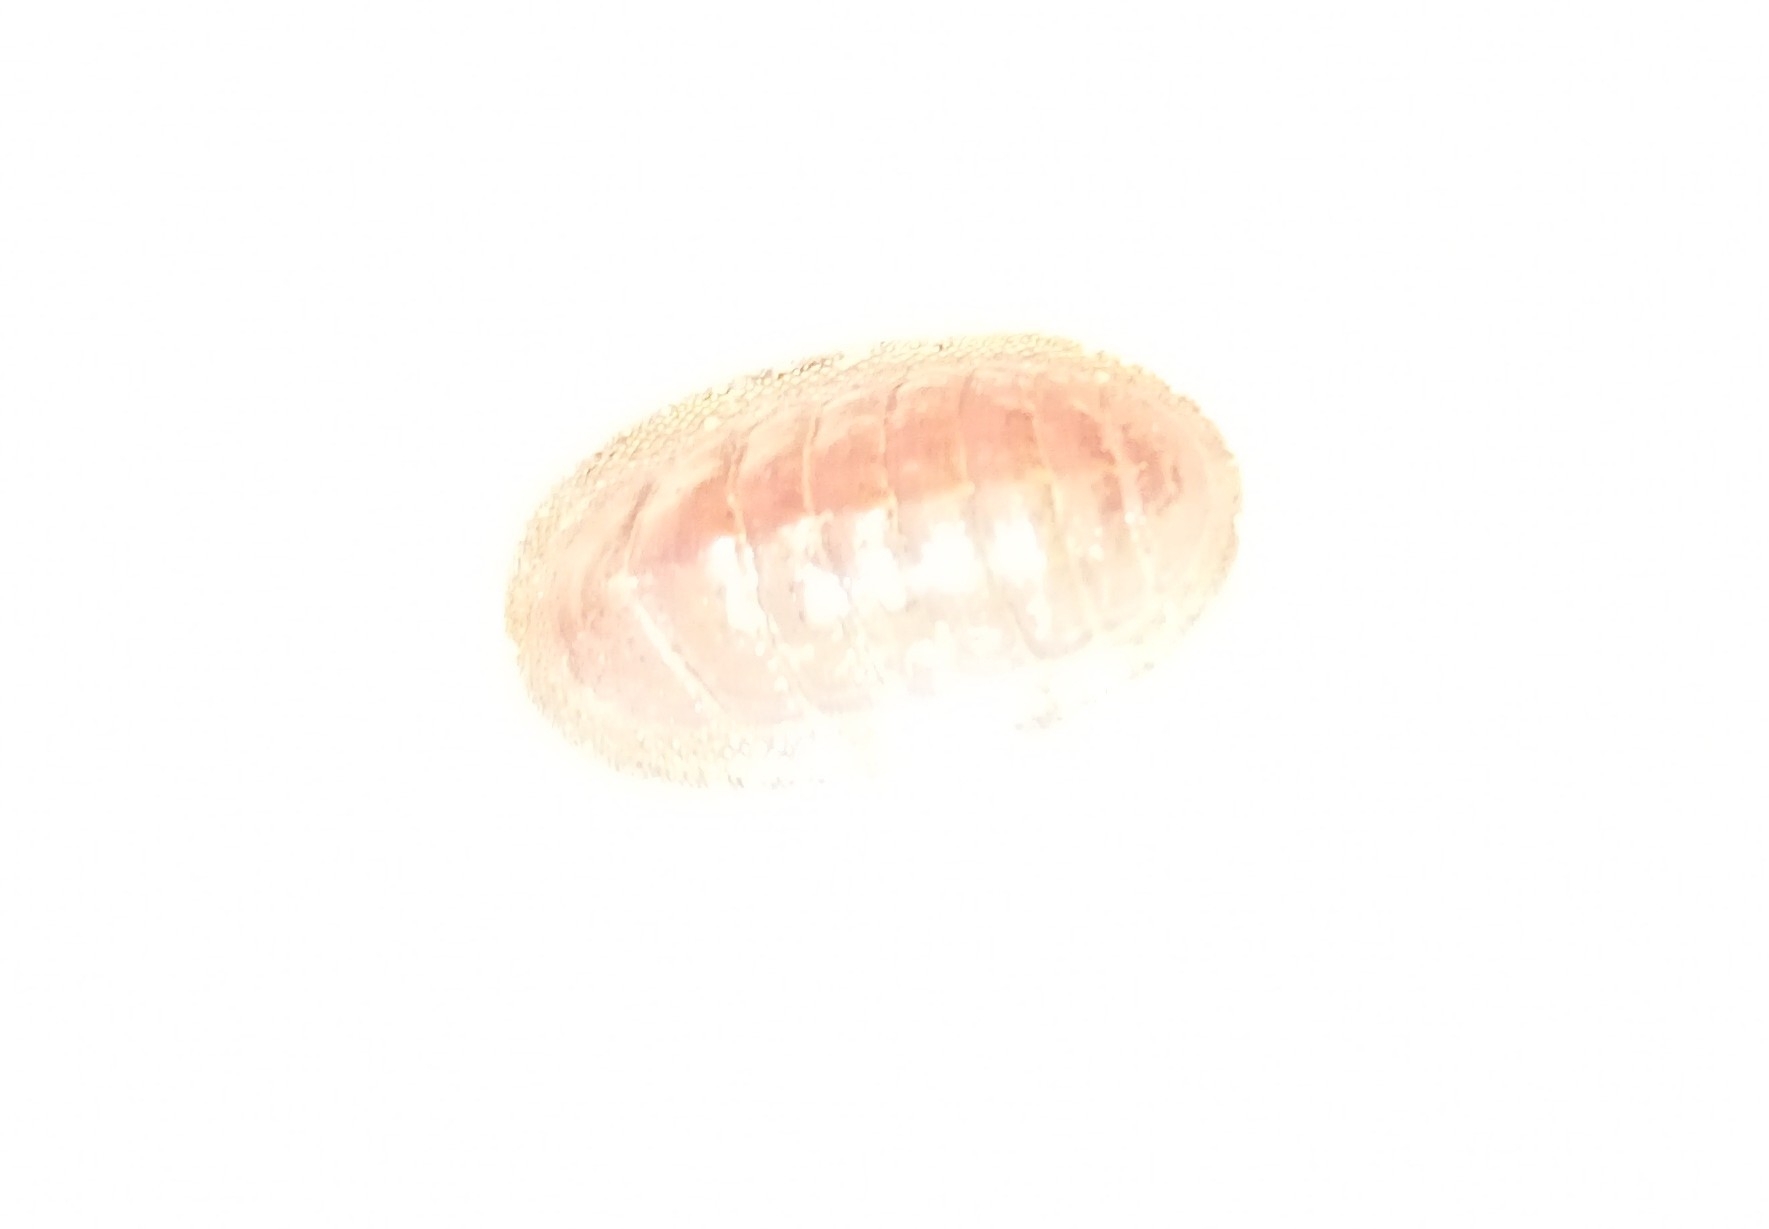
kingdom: Animalia
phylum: Mollusca
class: Polyplacophora
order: Chitonida
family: Chitonidae
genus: Chiton
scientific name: Chiton glaucus
